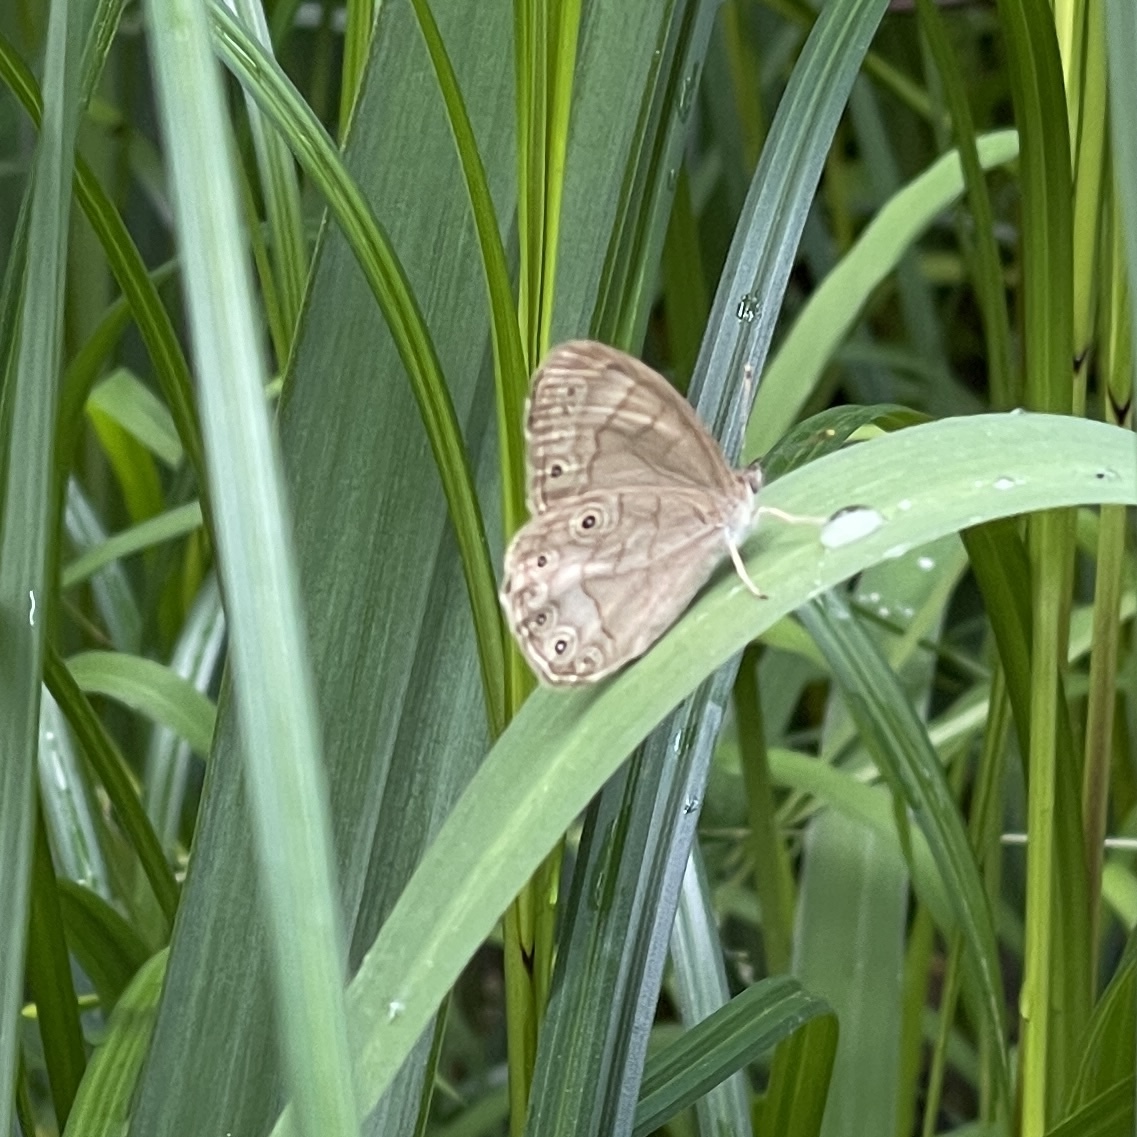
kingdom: Animalia
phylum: Arthropoda
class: Insecta
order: Lepidoptera
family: Nymphalidae
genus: Lethe
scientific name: Lethe eurydice
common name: Eyed brown
